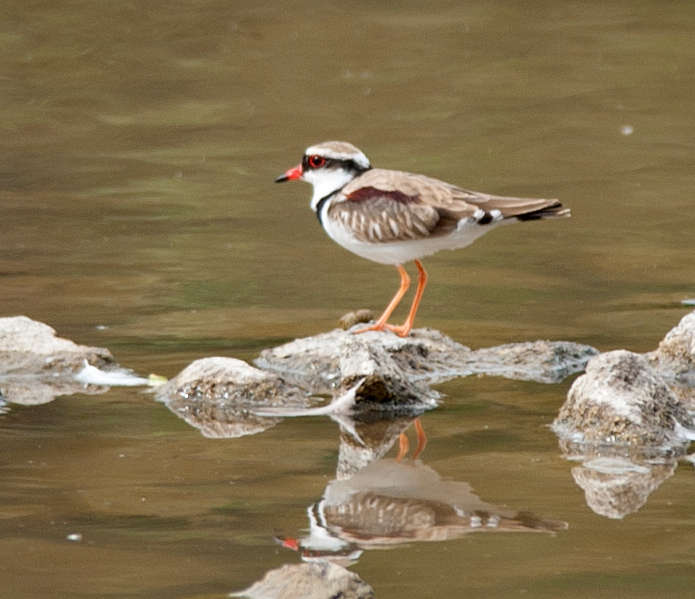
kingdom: Animalia
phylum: Chordata
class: Aves
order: Charadriiformes
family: Charadriidae
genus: Elseyornis
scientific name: Elseyornis melanops
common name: Black-fronted dotterel
